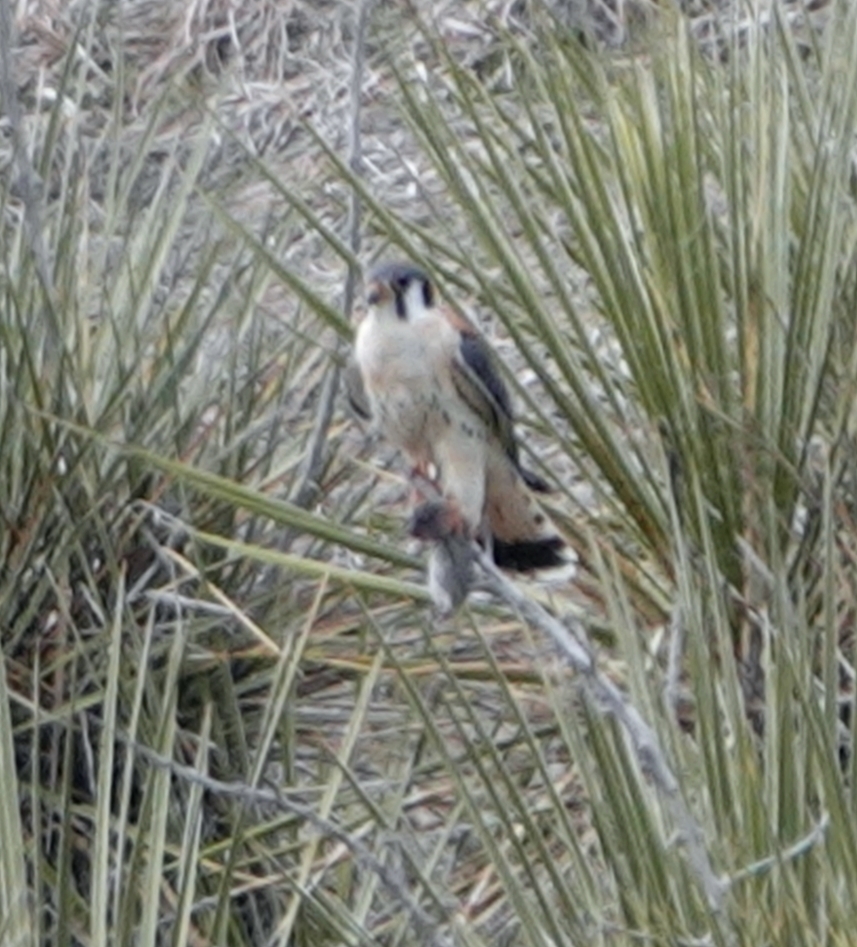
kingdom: Animalia
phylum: Chordata
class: Aves
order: Falconiformes
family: Falconidae
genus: Falco
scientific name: Falco sparverius
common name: American kestrel
